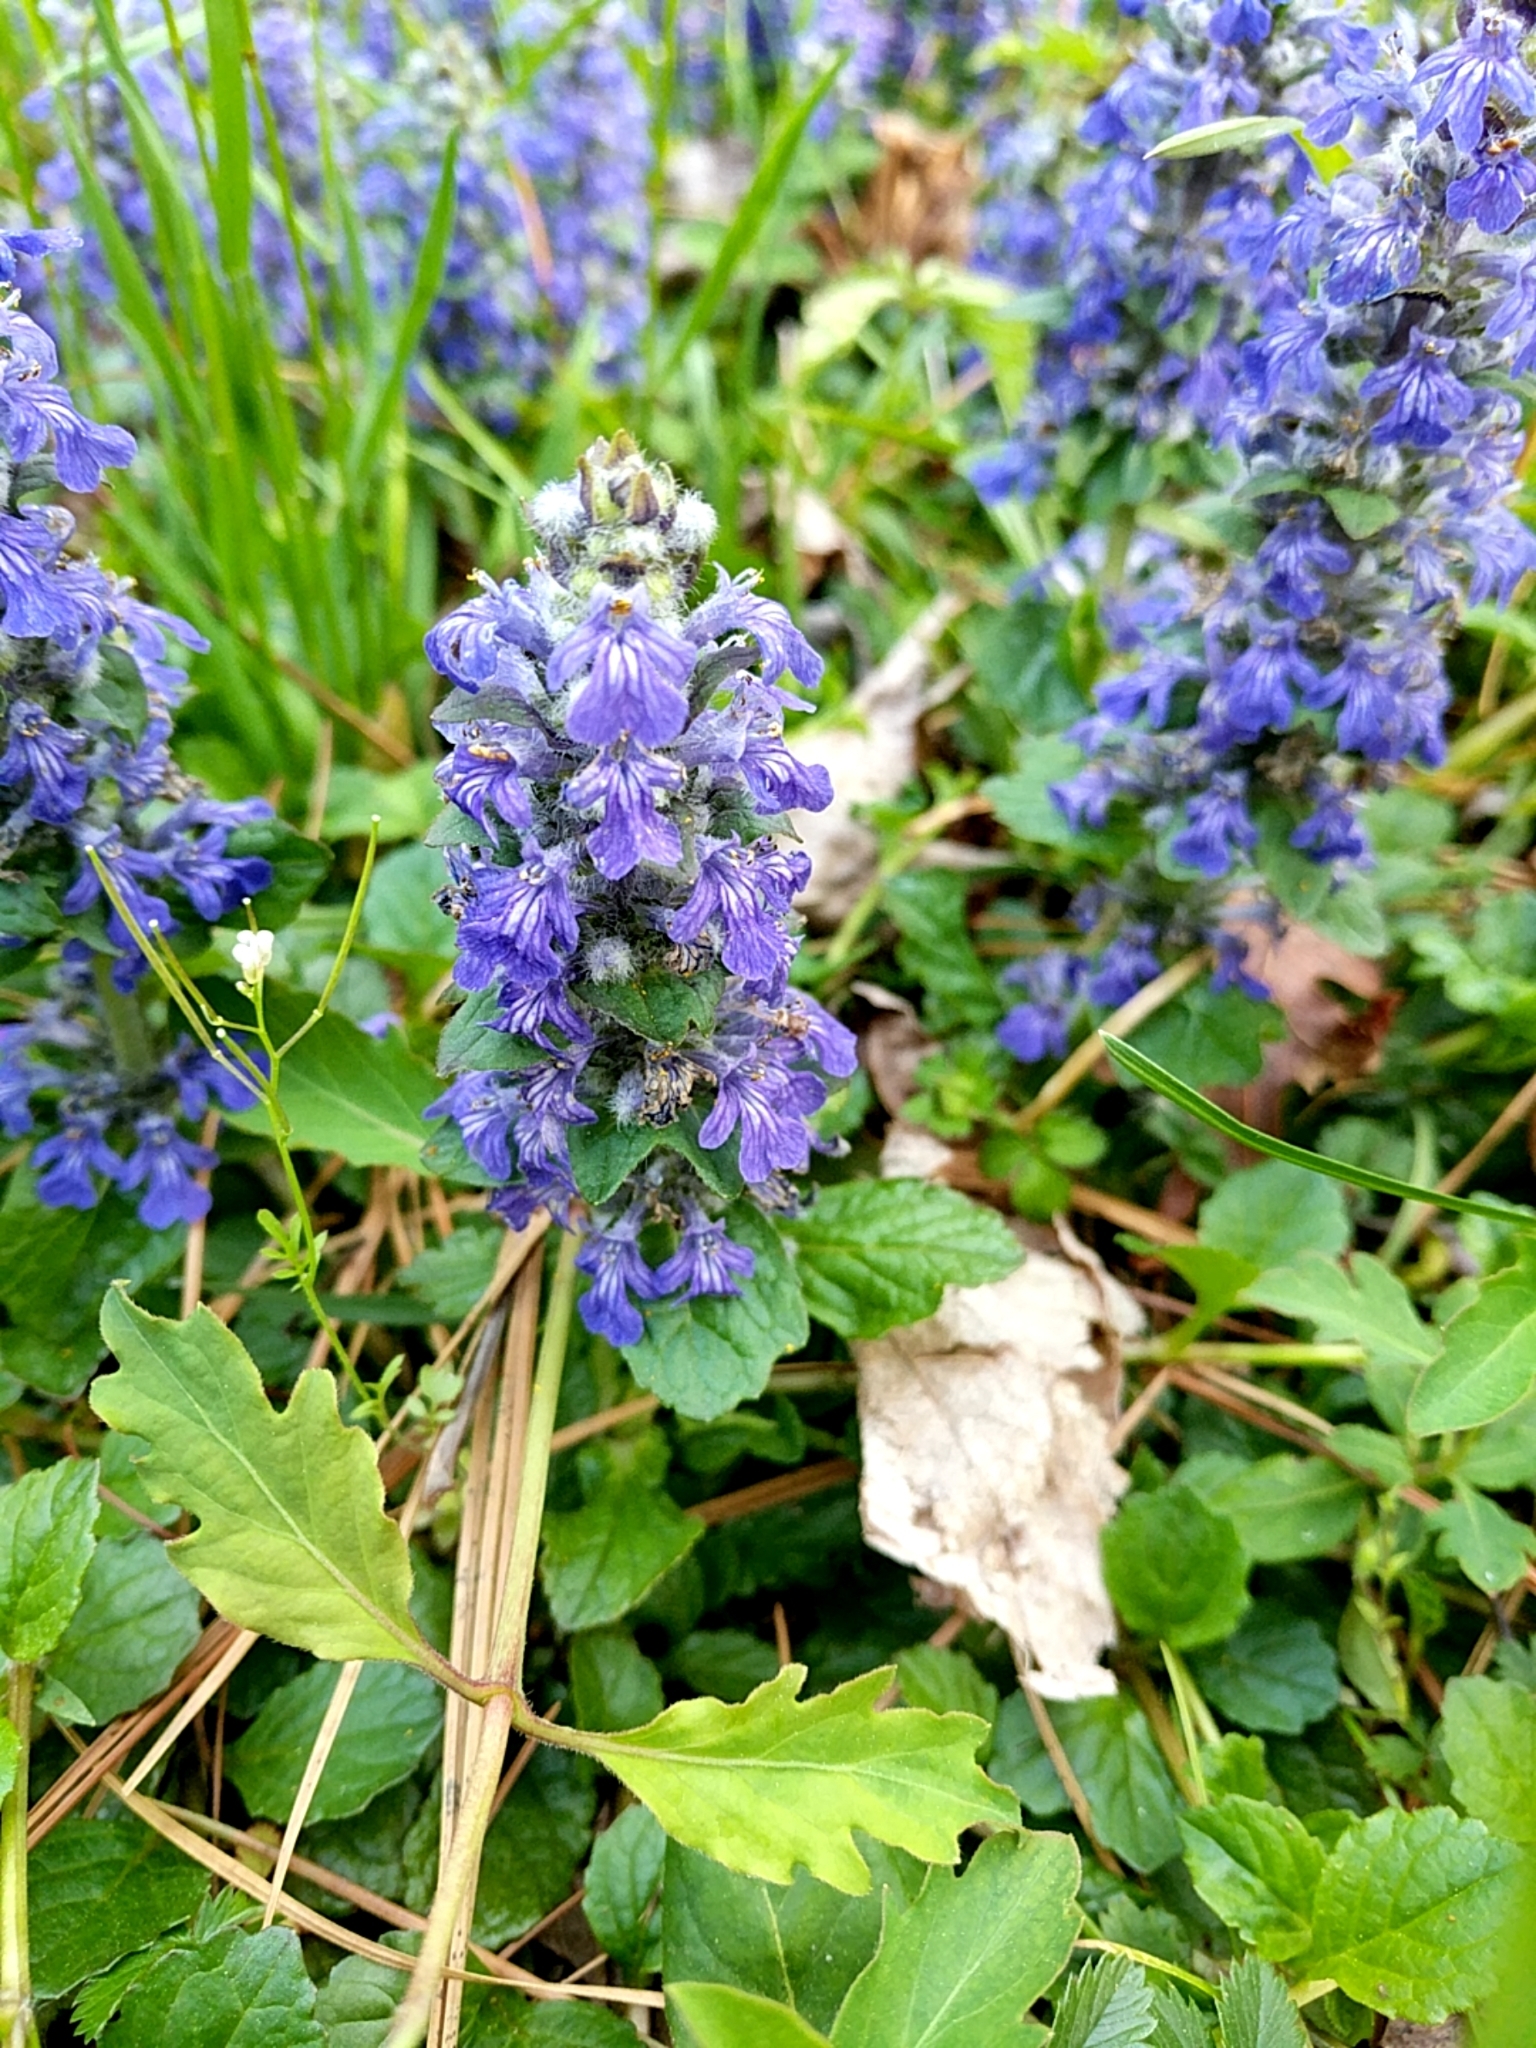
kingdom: Plantae
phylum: Tracheophyta
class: Magnoliopsida
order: Lamiales
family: Lamiaceae
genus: Ajuga
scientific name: Ajuga reptans
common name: Bugle
